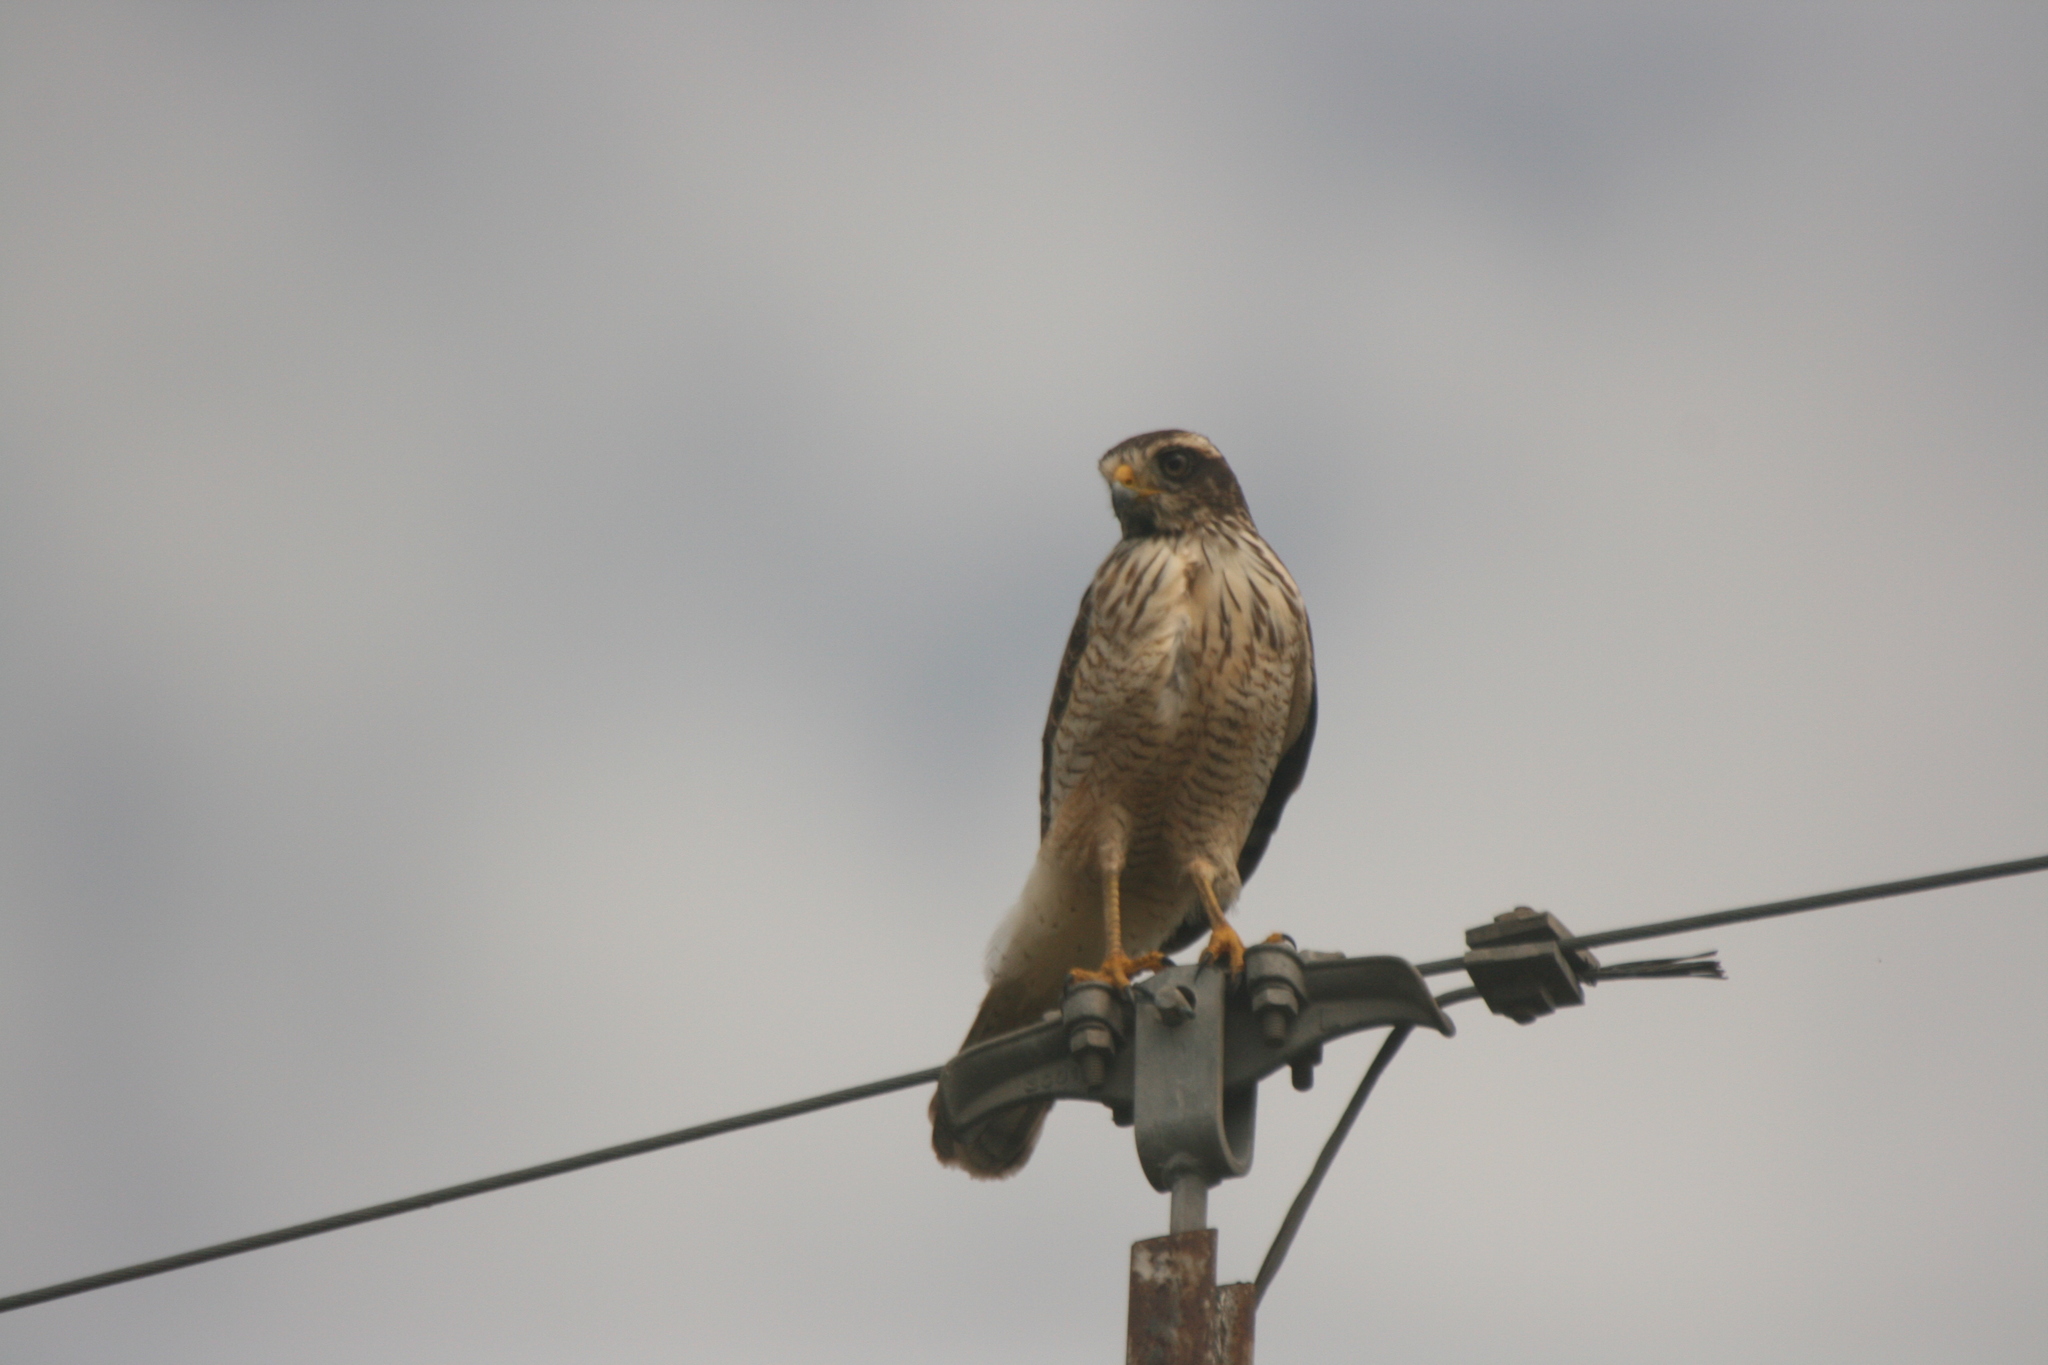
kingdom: Animalia
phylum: Chordata
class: Aves
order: Accipitriformes
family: Accipitridae
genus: Rupornis
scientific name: Rupornis magnirostris
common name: Roadside hawk
